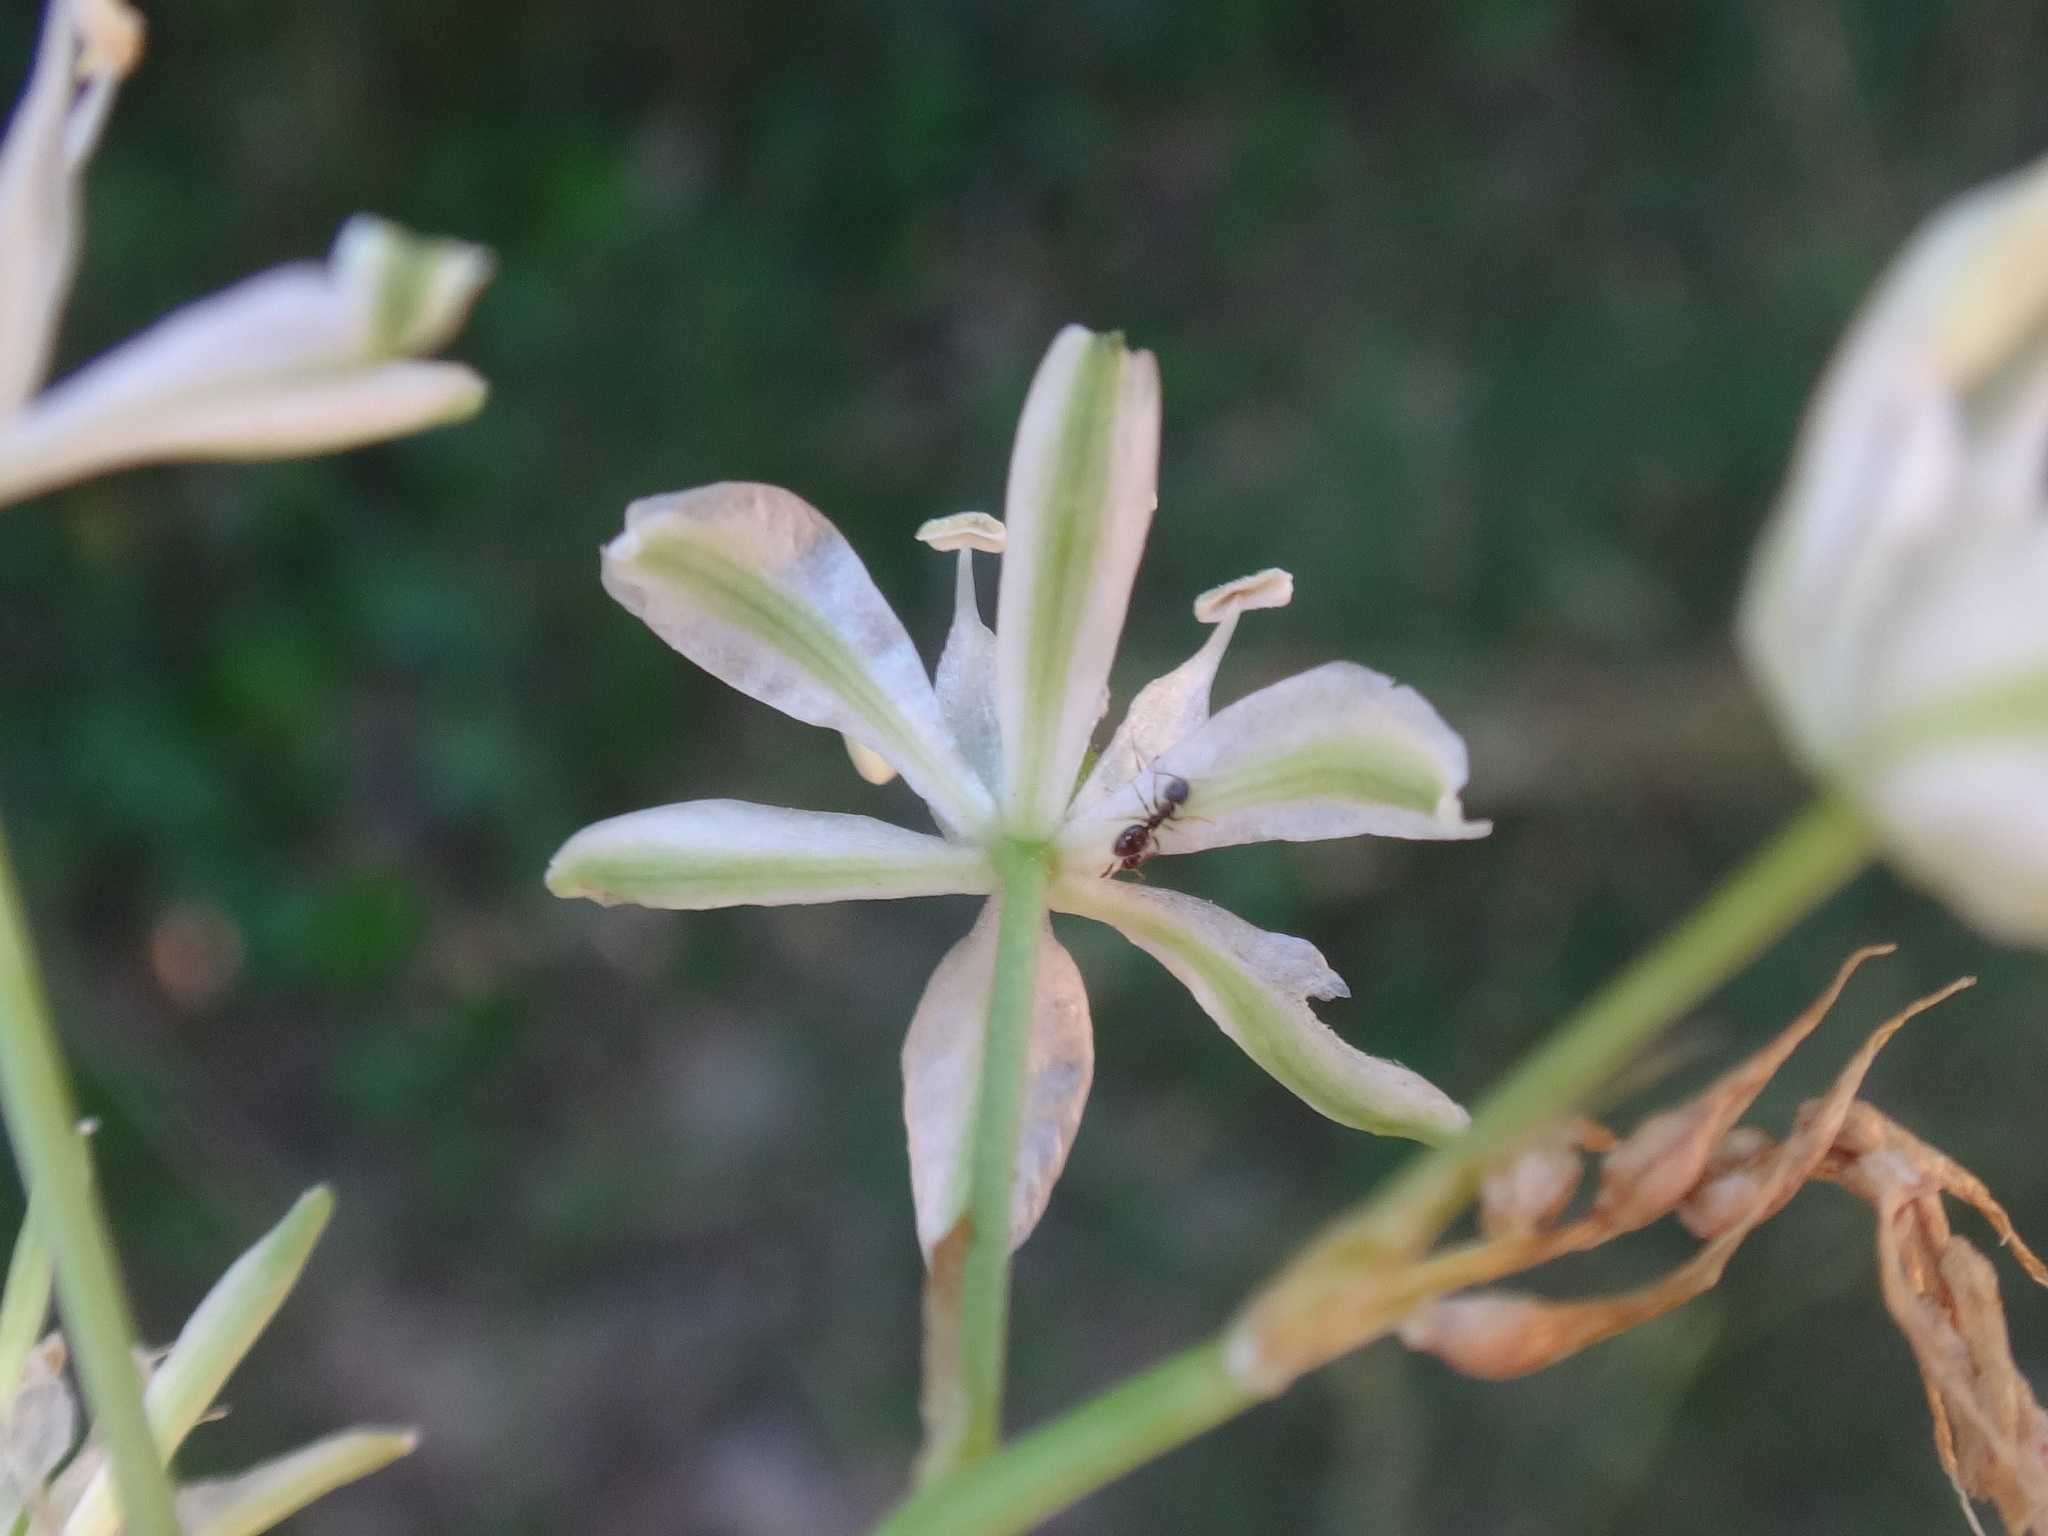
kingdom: Plantae
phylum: Tracheophyta
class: Liliopsida
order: Asparagales
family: Asparagaceae
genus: Ornithogalum
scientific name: Ornithogalum sphaerocarpum
